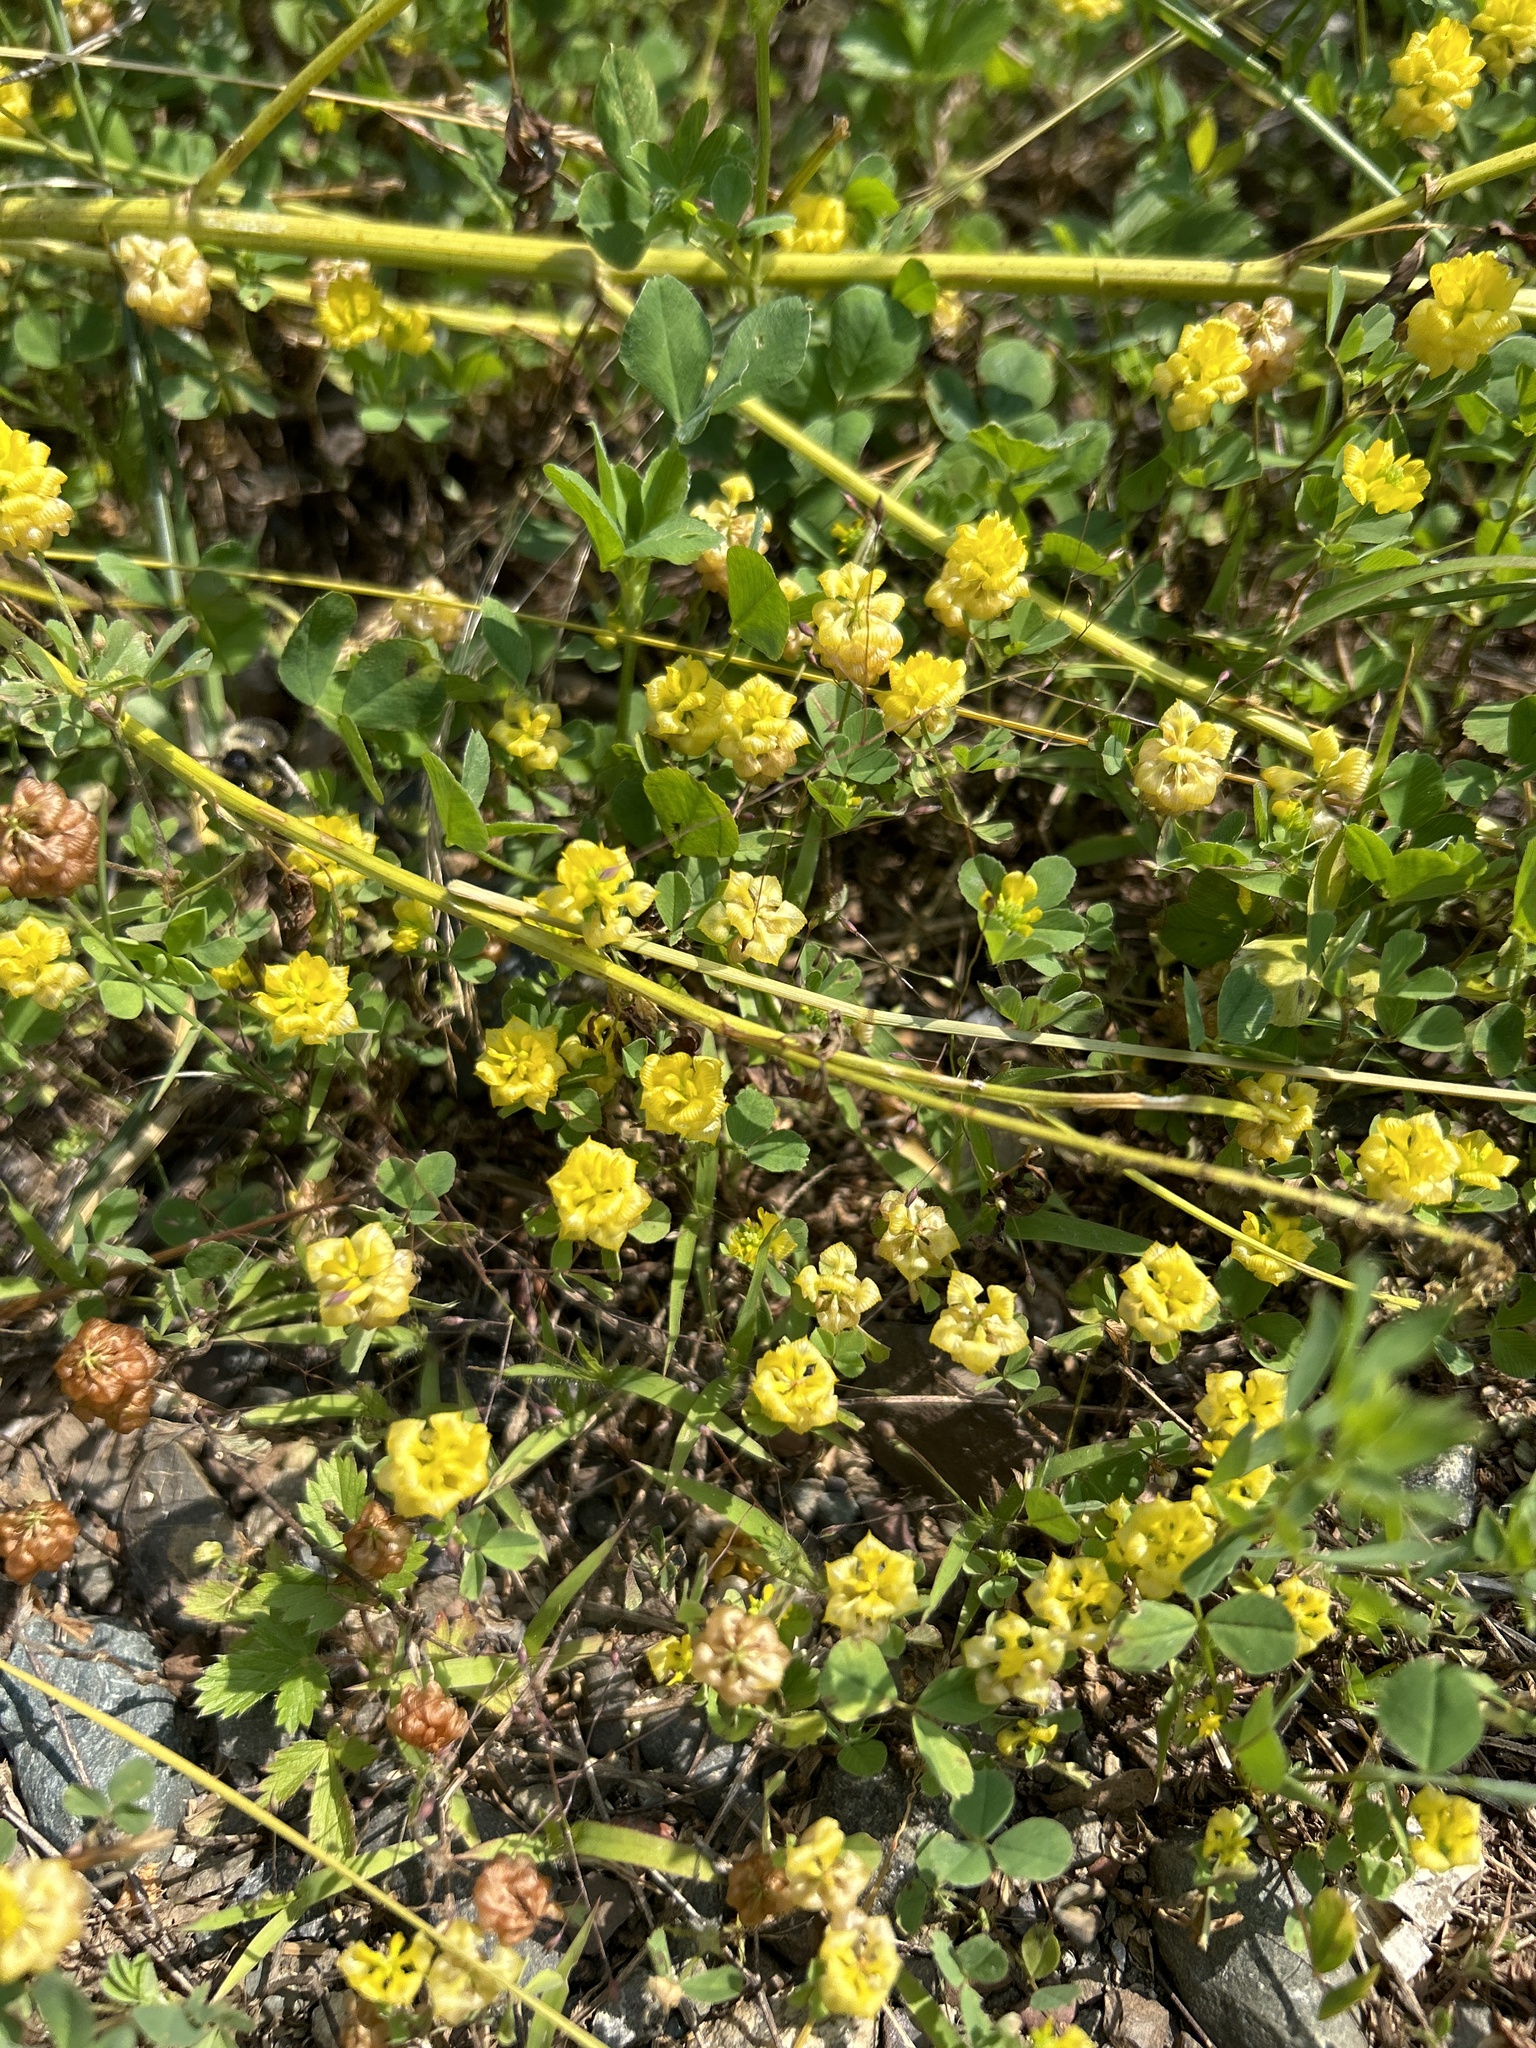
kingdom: Plantae
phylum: Tracheophyta
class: Magnoliopsida
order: Fabales
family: Fabaceae
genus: Trifolium
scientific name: Trifolium campestre
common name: Field clover
